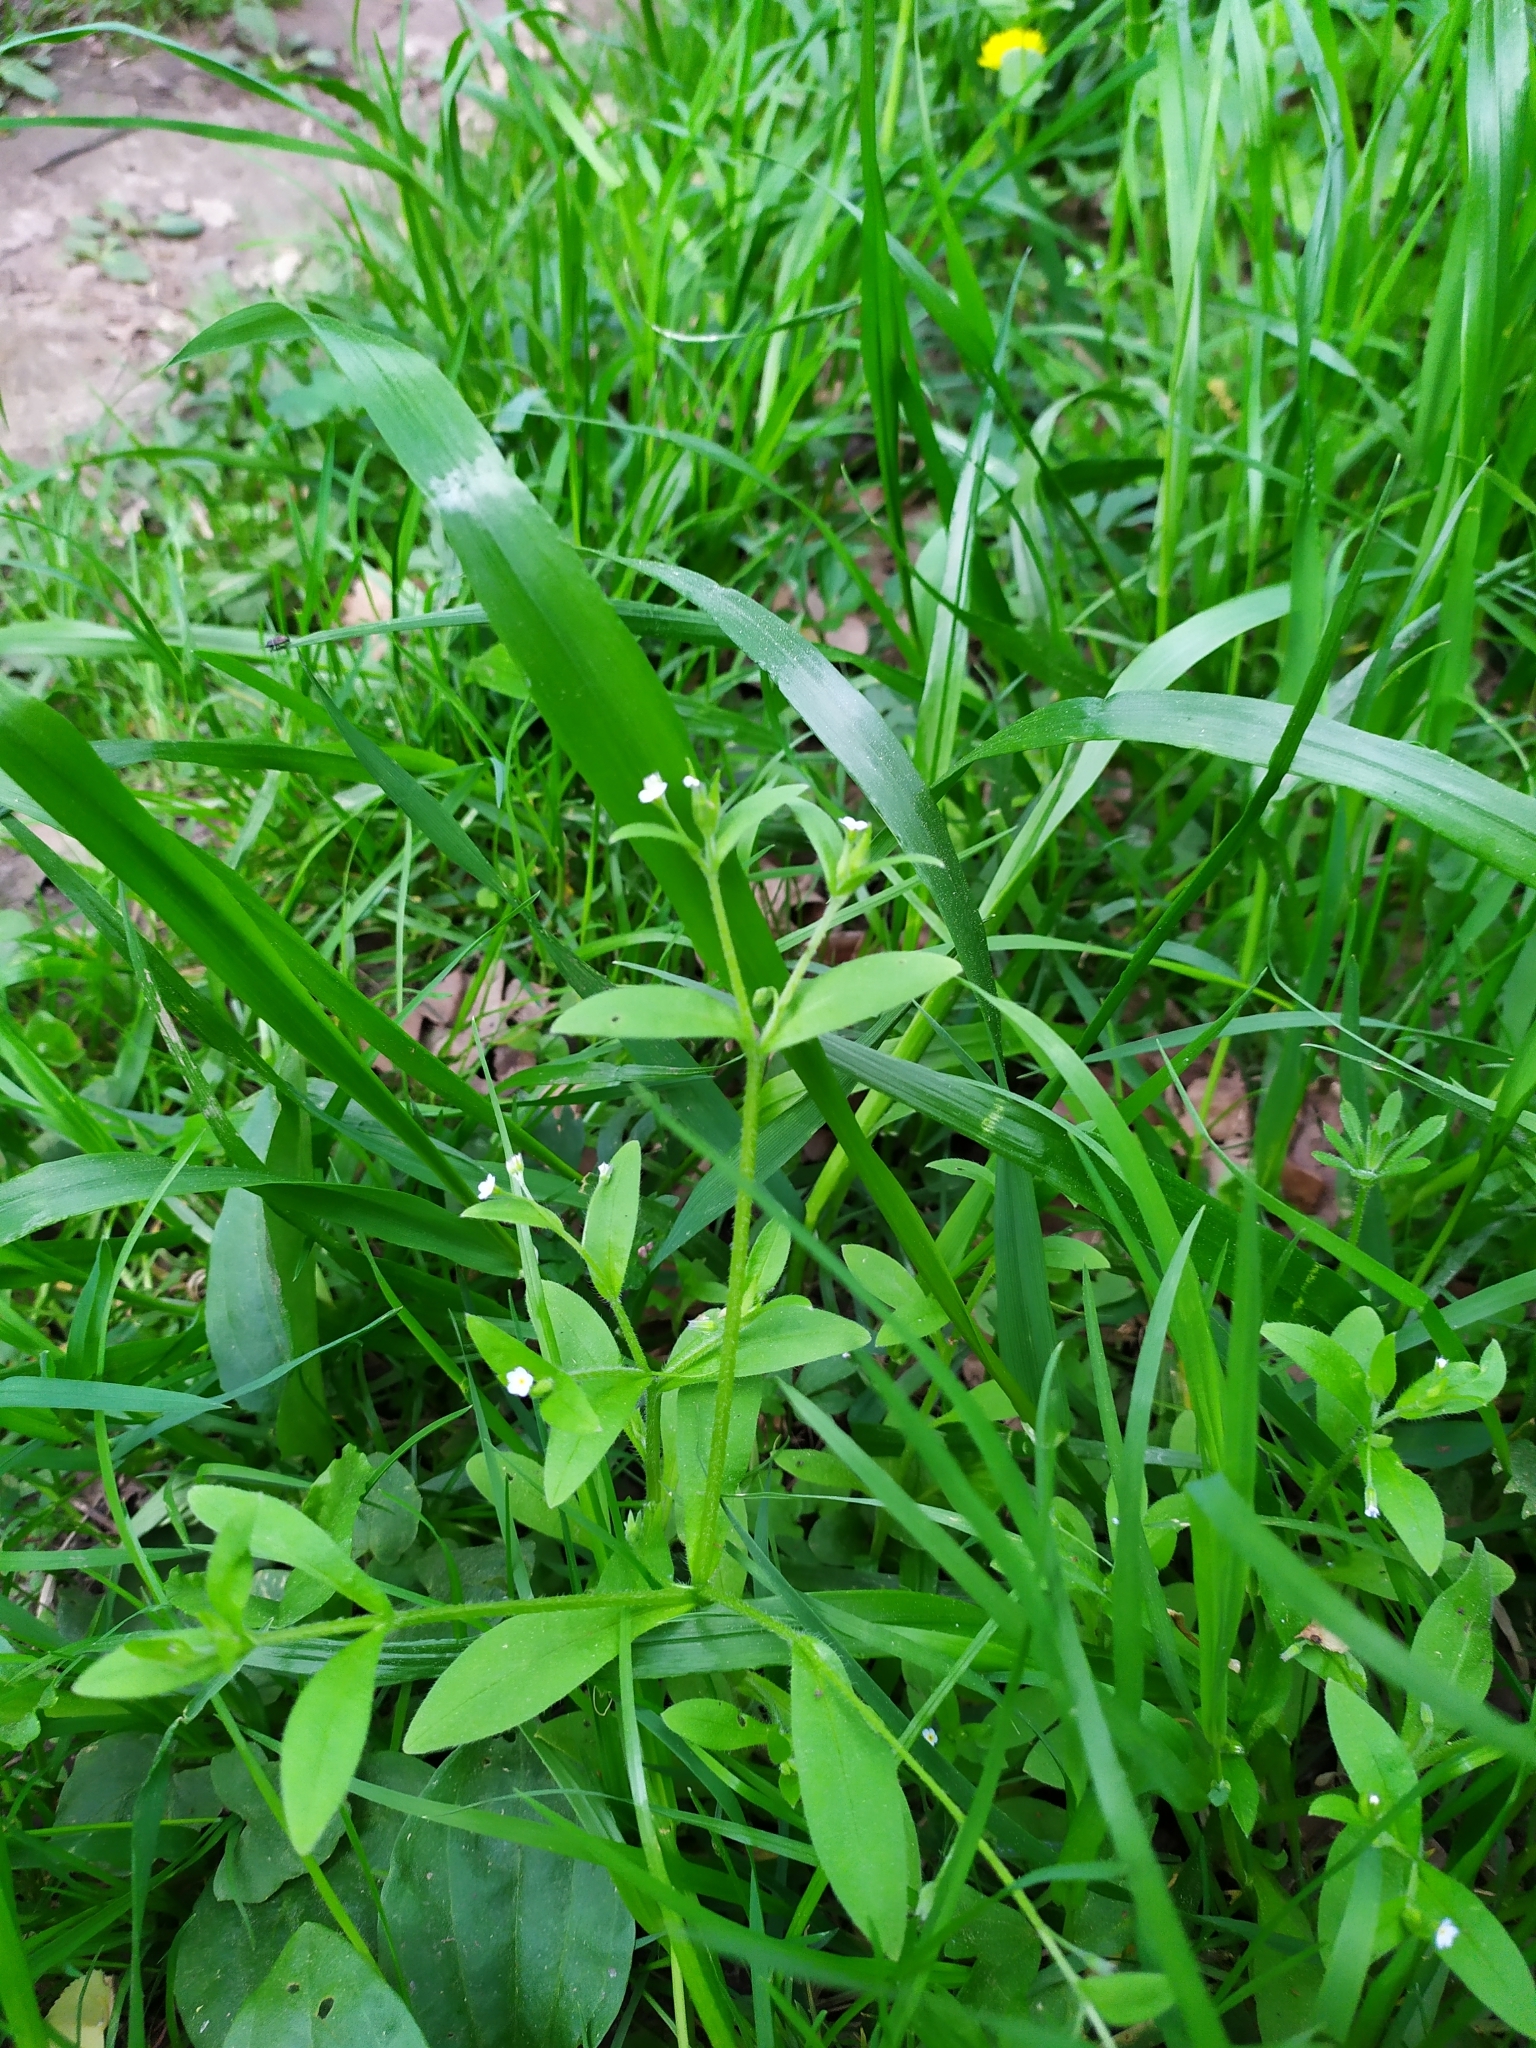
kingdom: Plantae
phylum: Tracheophyta
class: Magnoliopsida
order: Boraginales
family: Boraginaceae
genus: Myosotis
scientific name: Myosotis sparsiflora
